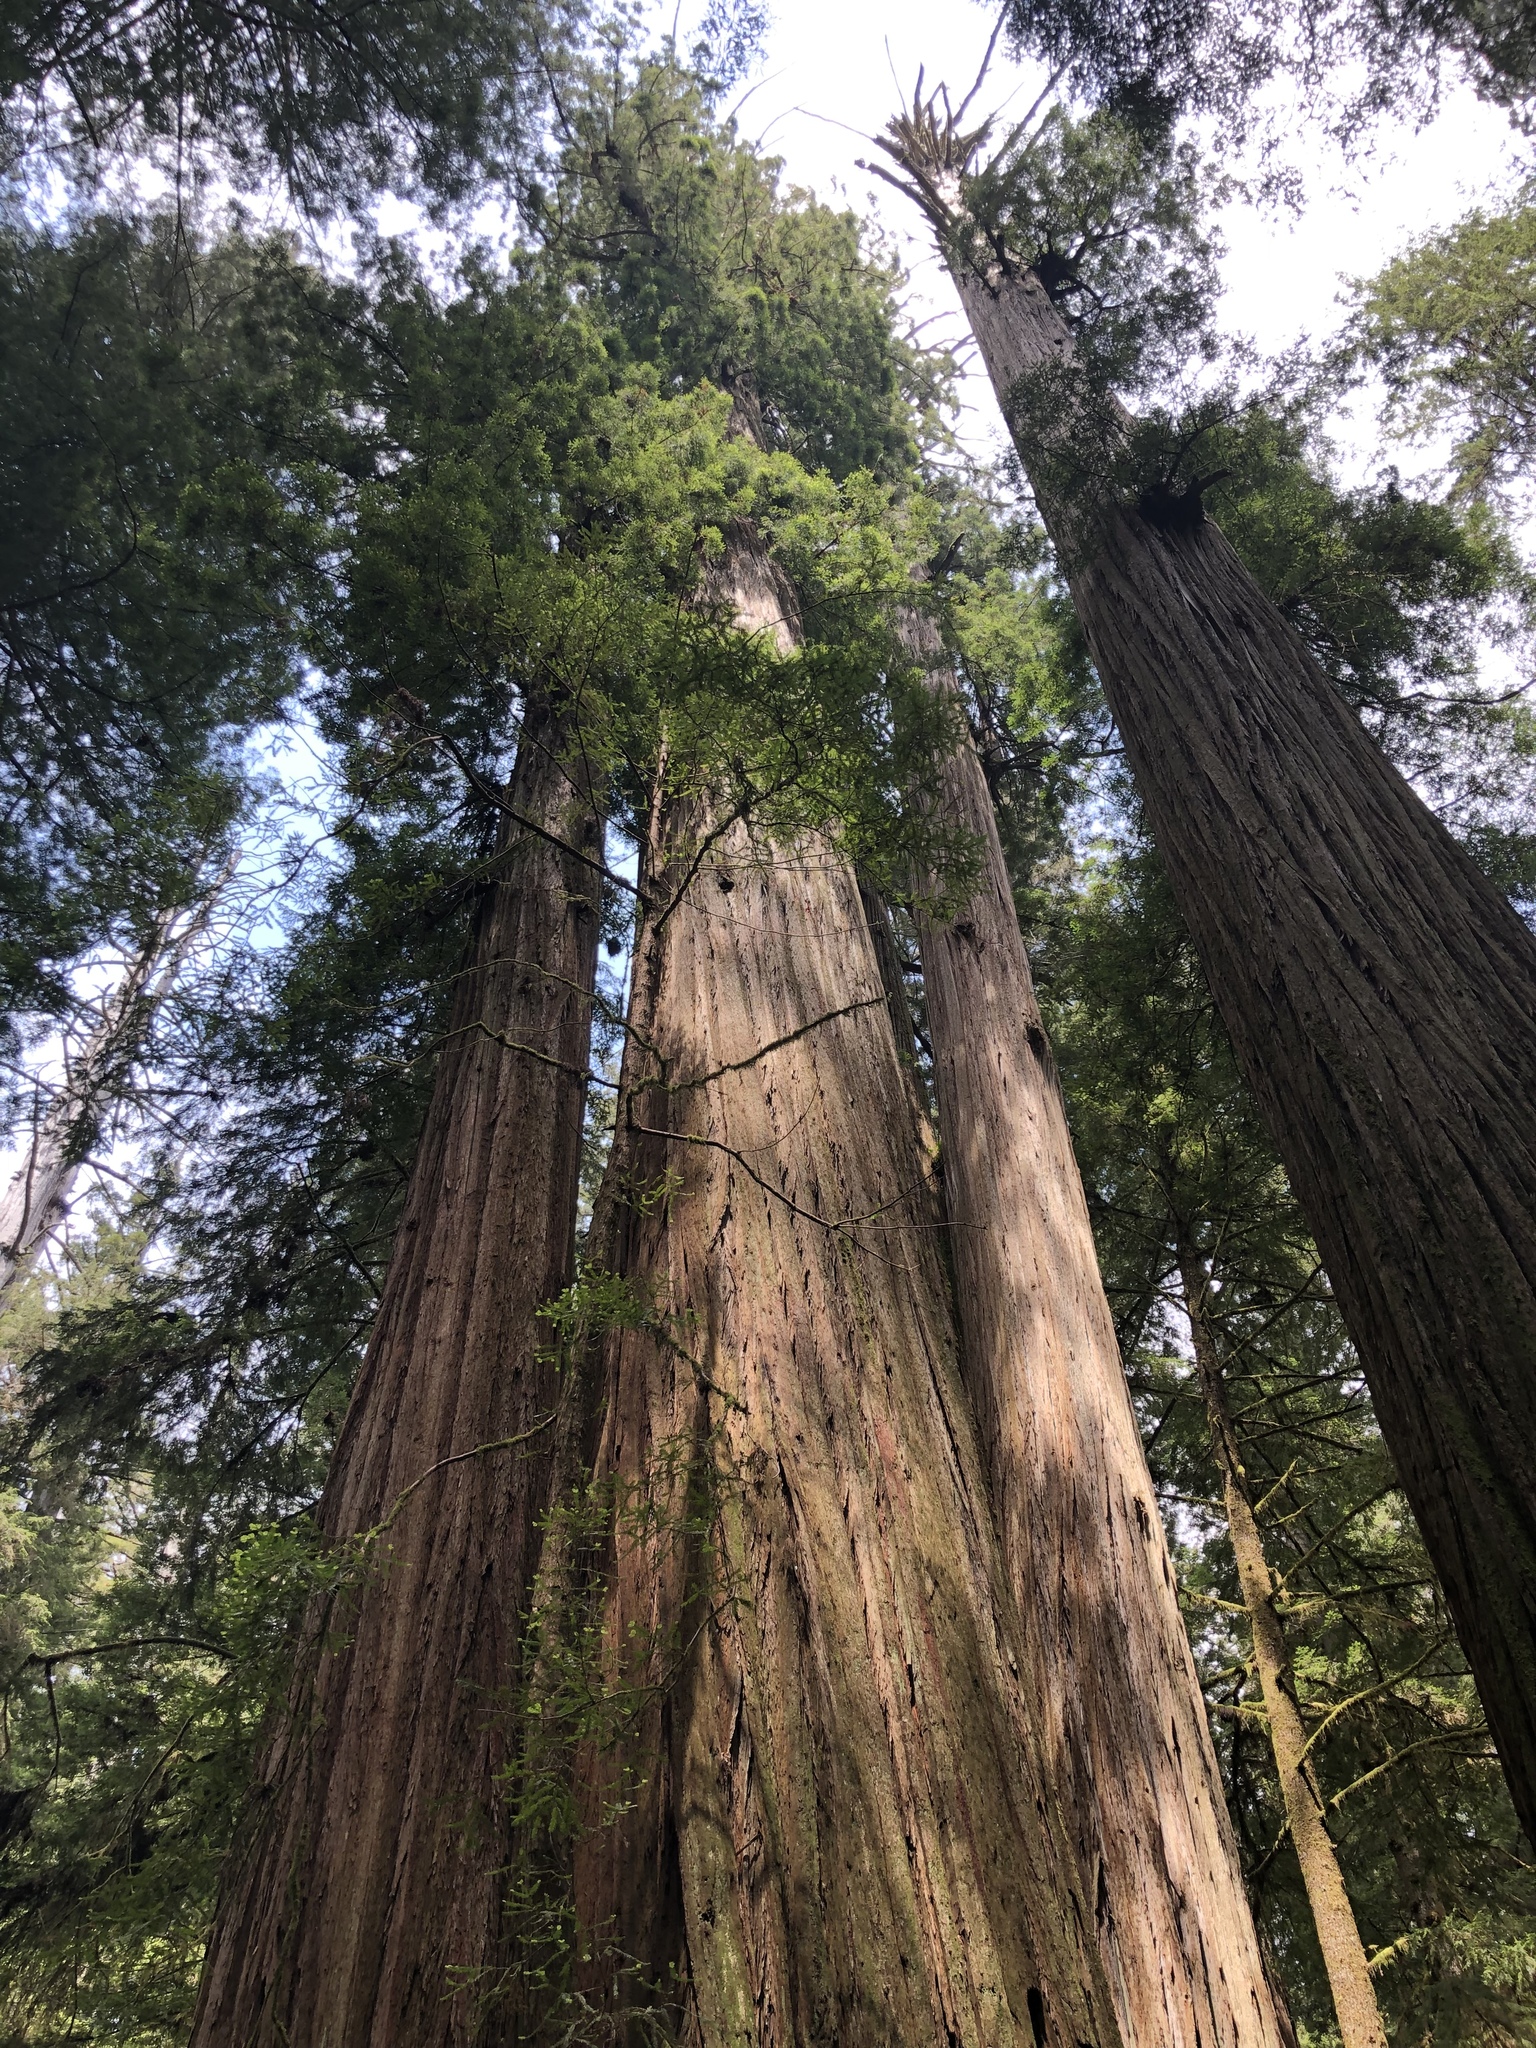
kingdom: Plantae
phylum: Tracheophyta
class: Pinopsida
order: Pinales
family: Cupressaceae
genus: Sequoia
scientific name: Sequoia sempervirens
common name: Coast redwood
